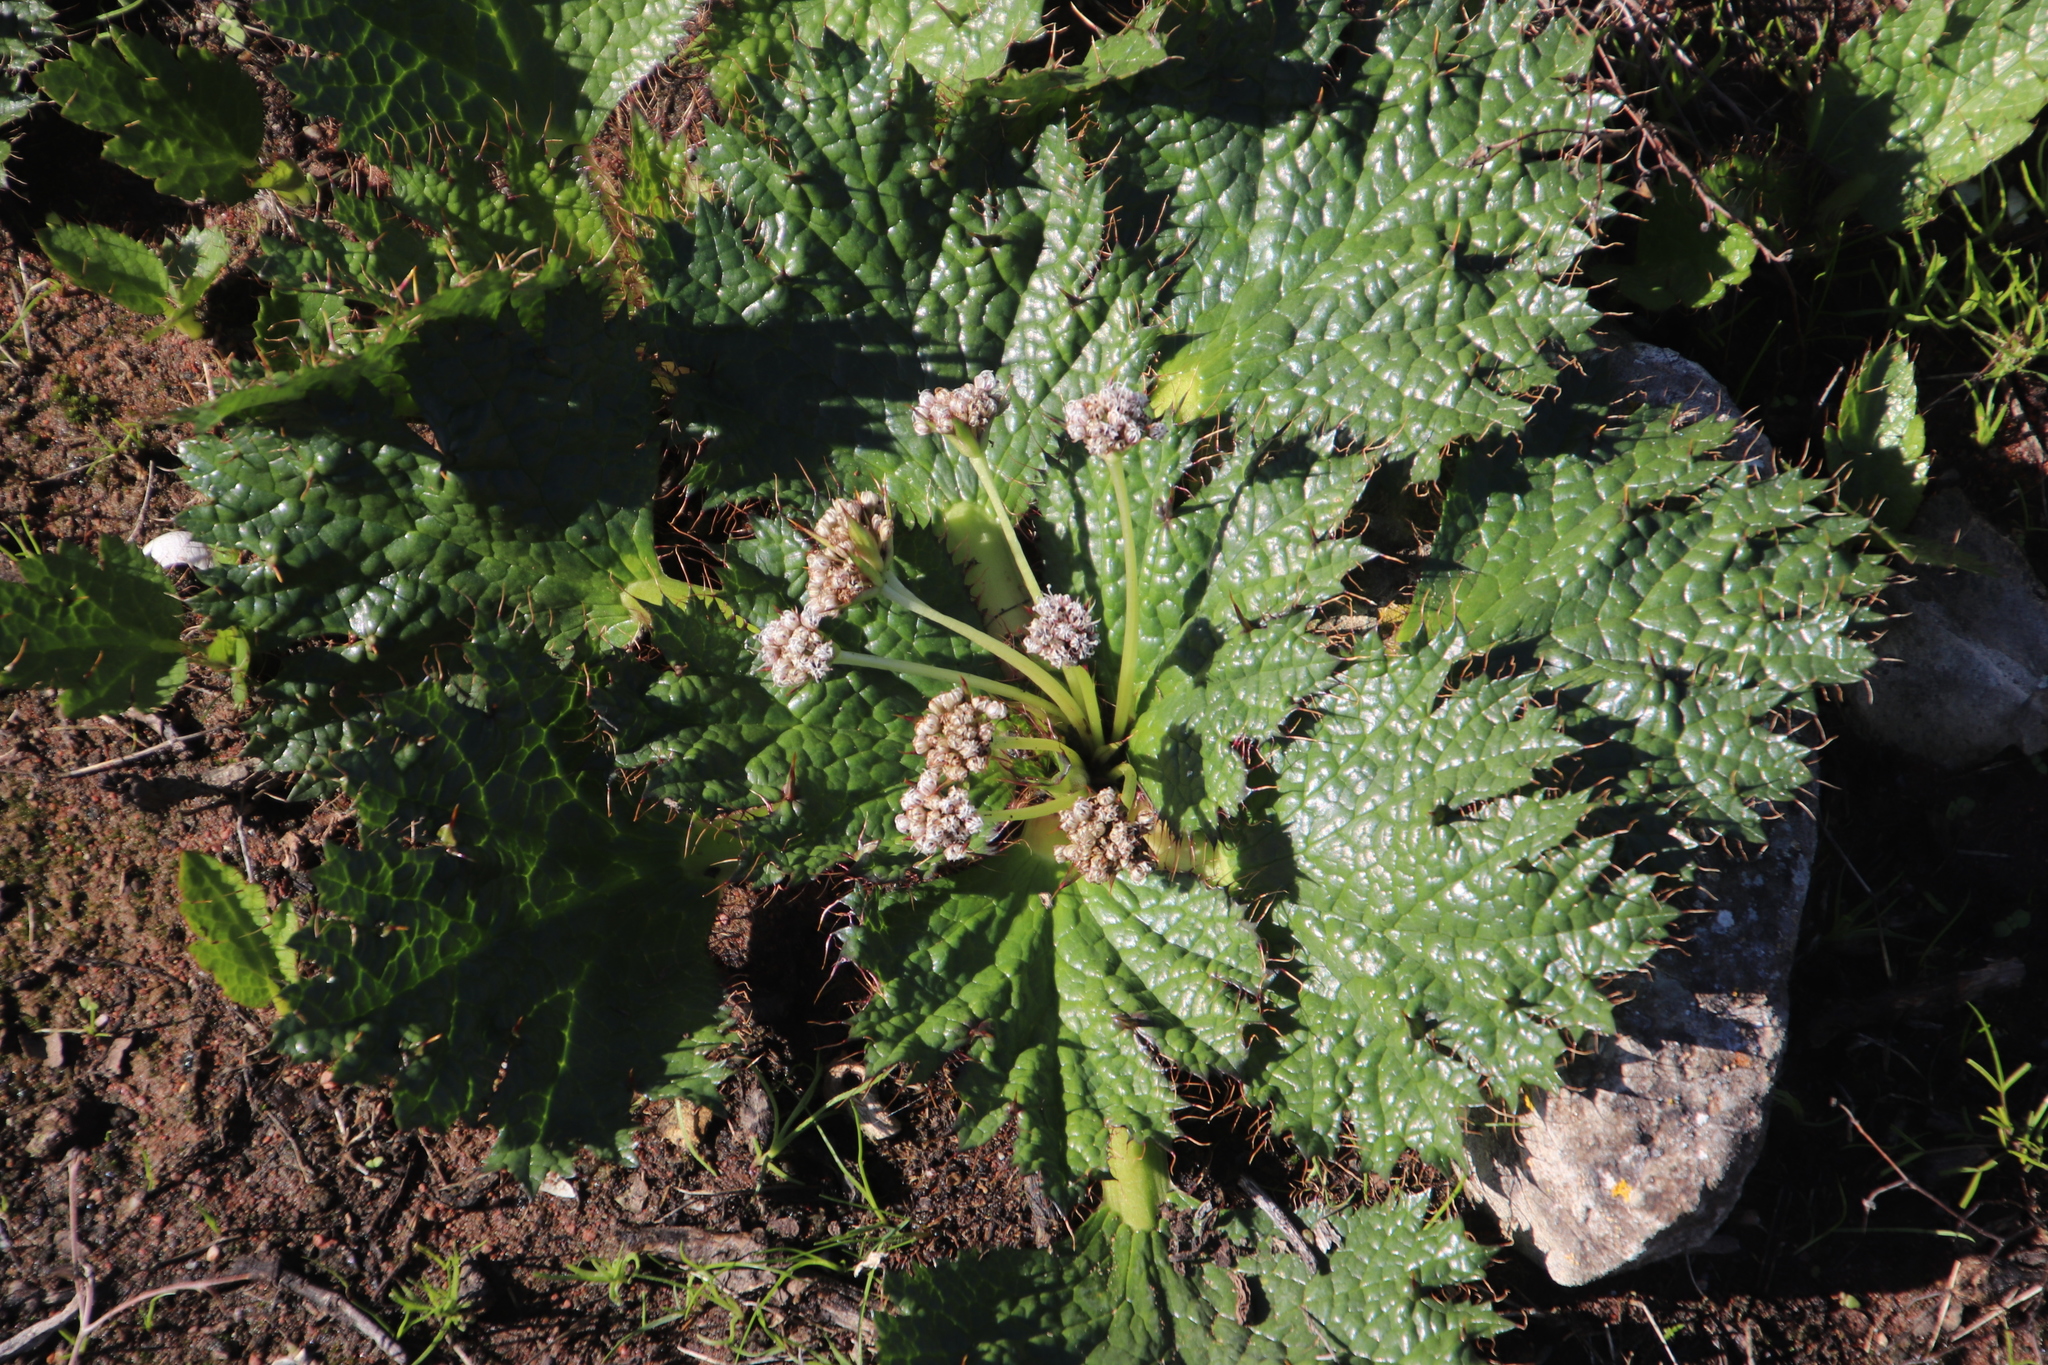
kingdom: Plantae
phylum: Tracheophyta
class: Magnoliopsida
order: Apiales
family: Apiaceae
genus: Arctopus
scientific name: Arctopus echinatus
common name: Platdoring
